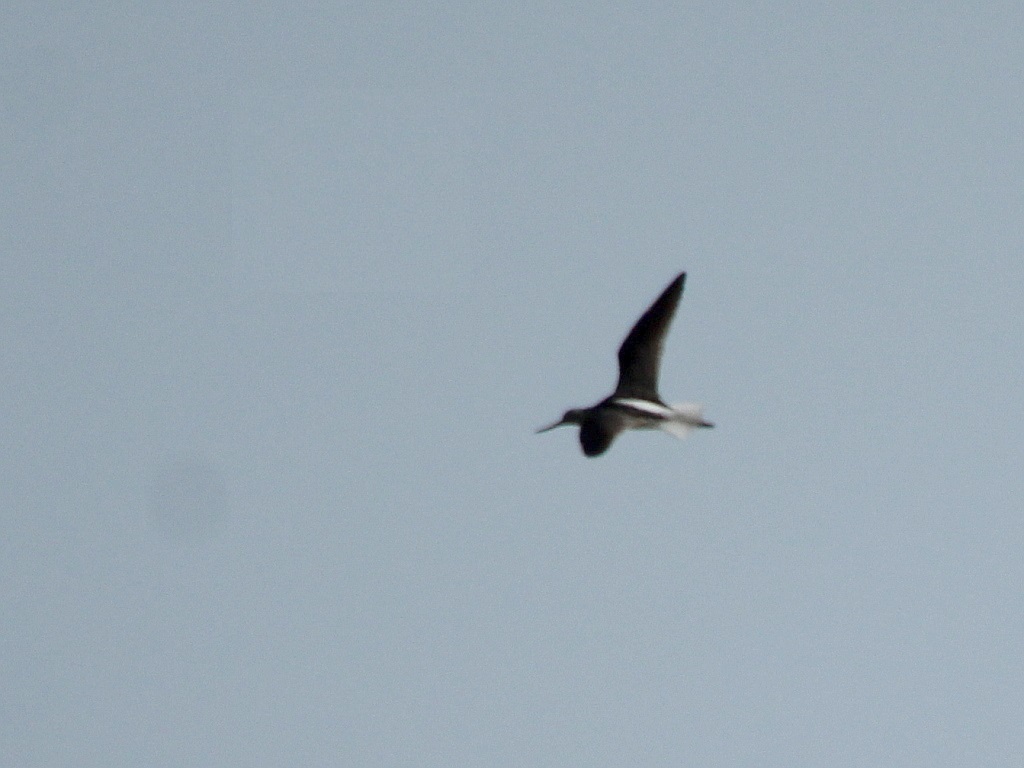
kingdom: Animalia
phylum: Chordata
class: Aves
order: Charadriiformes
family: Scolopacidae
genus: Tringa
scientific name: Tringa nebularia
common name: Common greenshank
